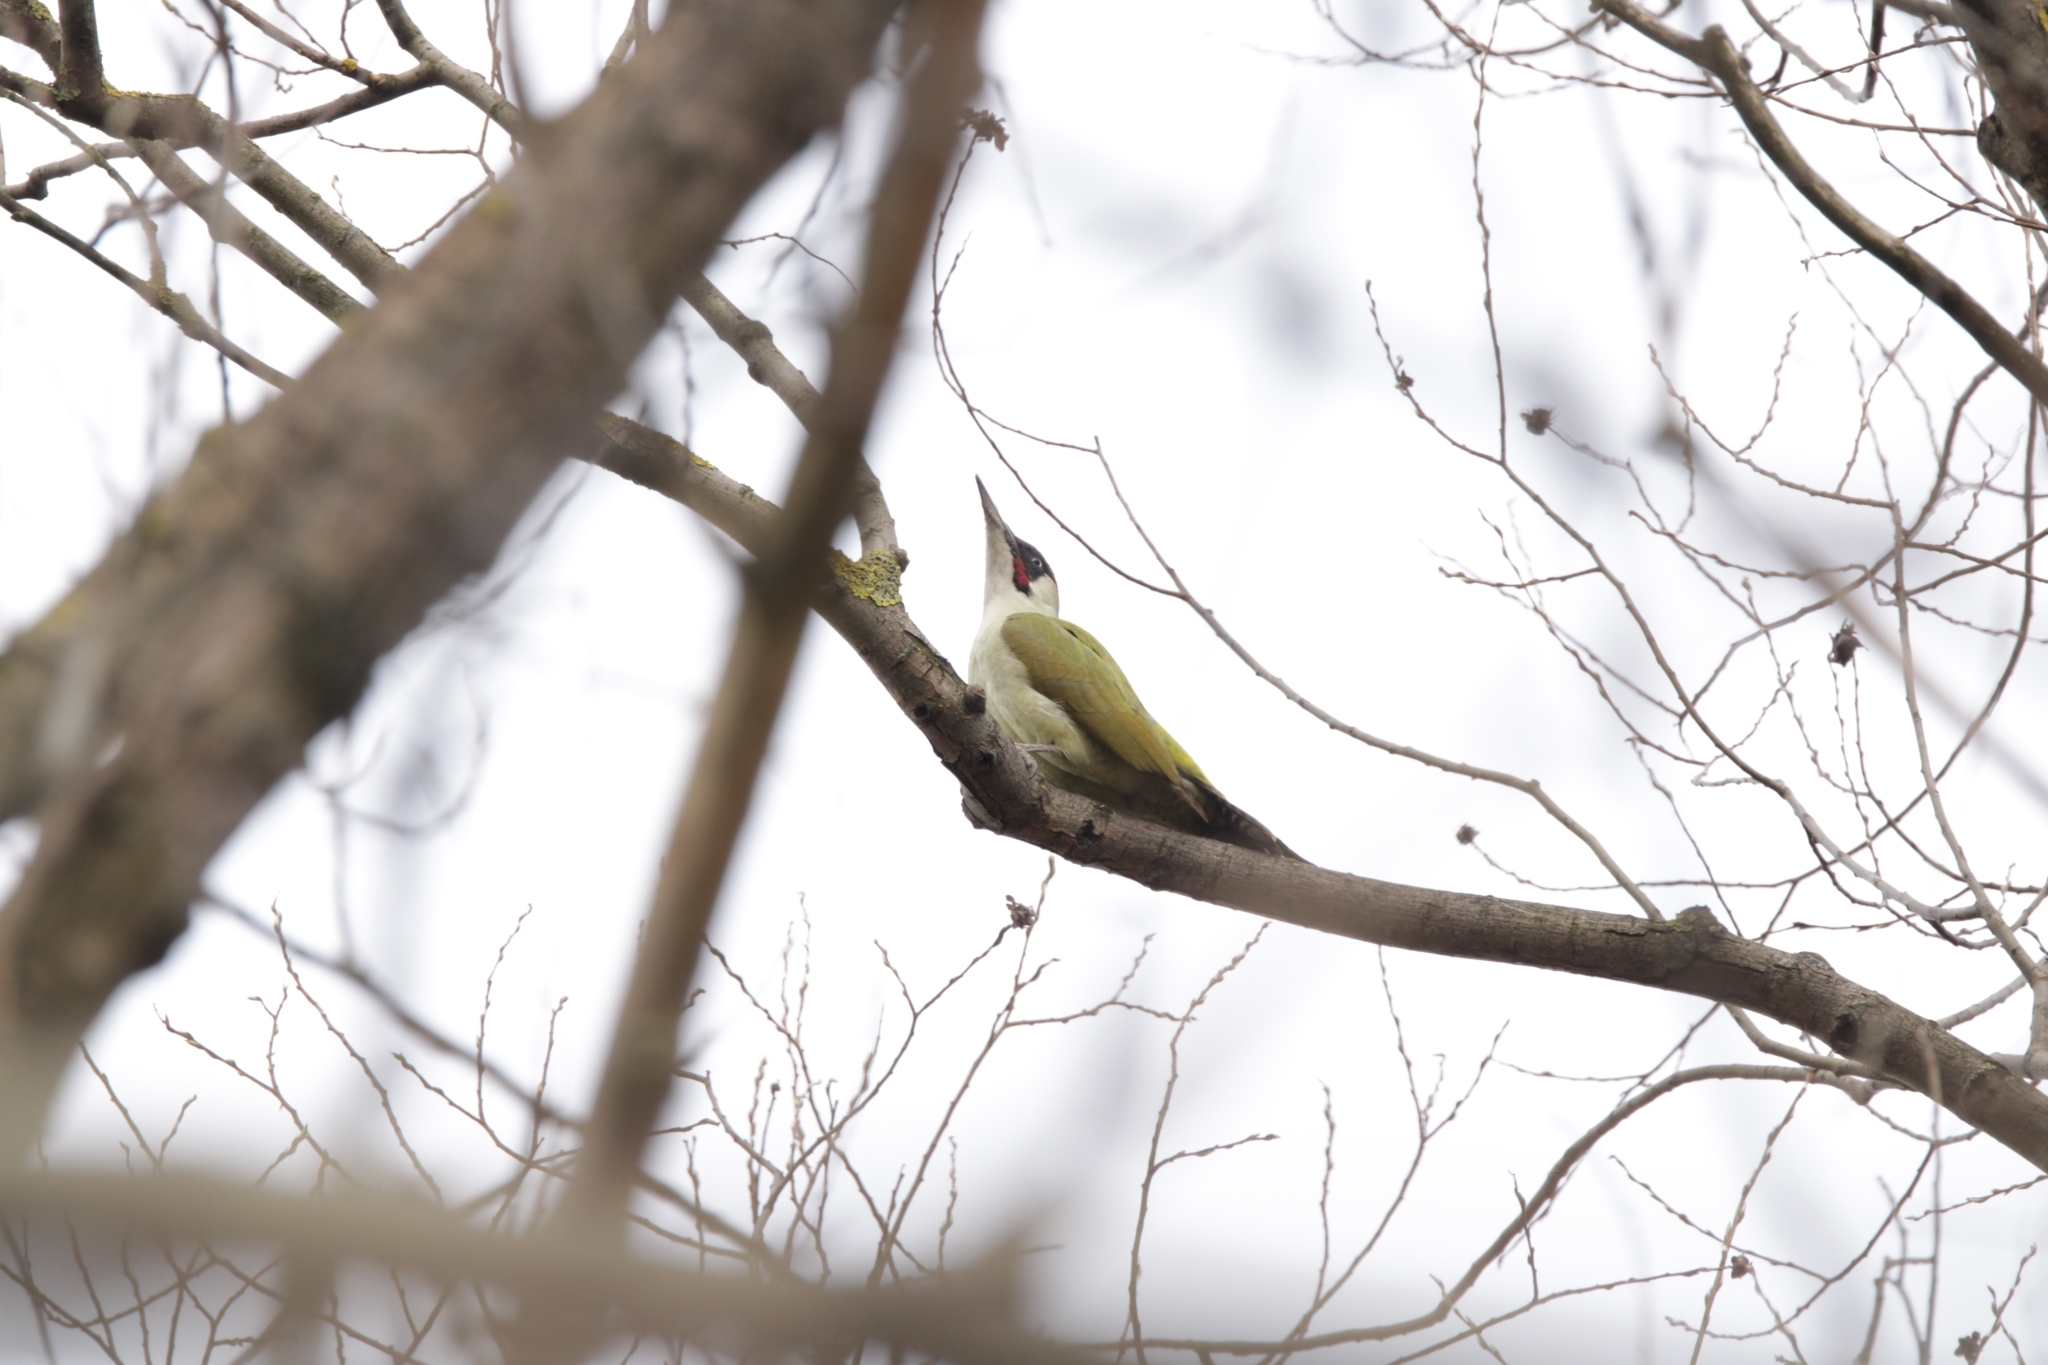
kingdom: Animalia
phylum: Chordata
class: Aves
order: Piciformes
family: Picidae
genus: Picus
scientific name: Picus viridis
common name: European green woodpecker
